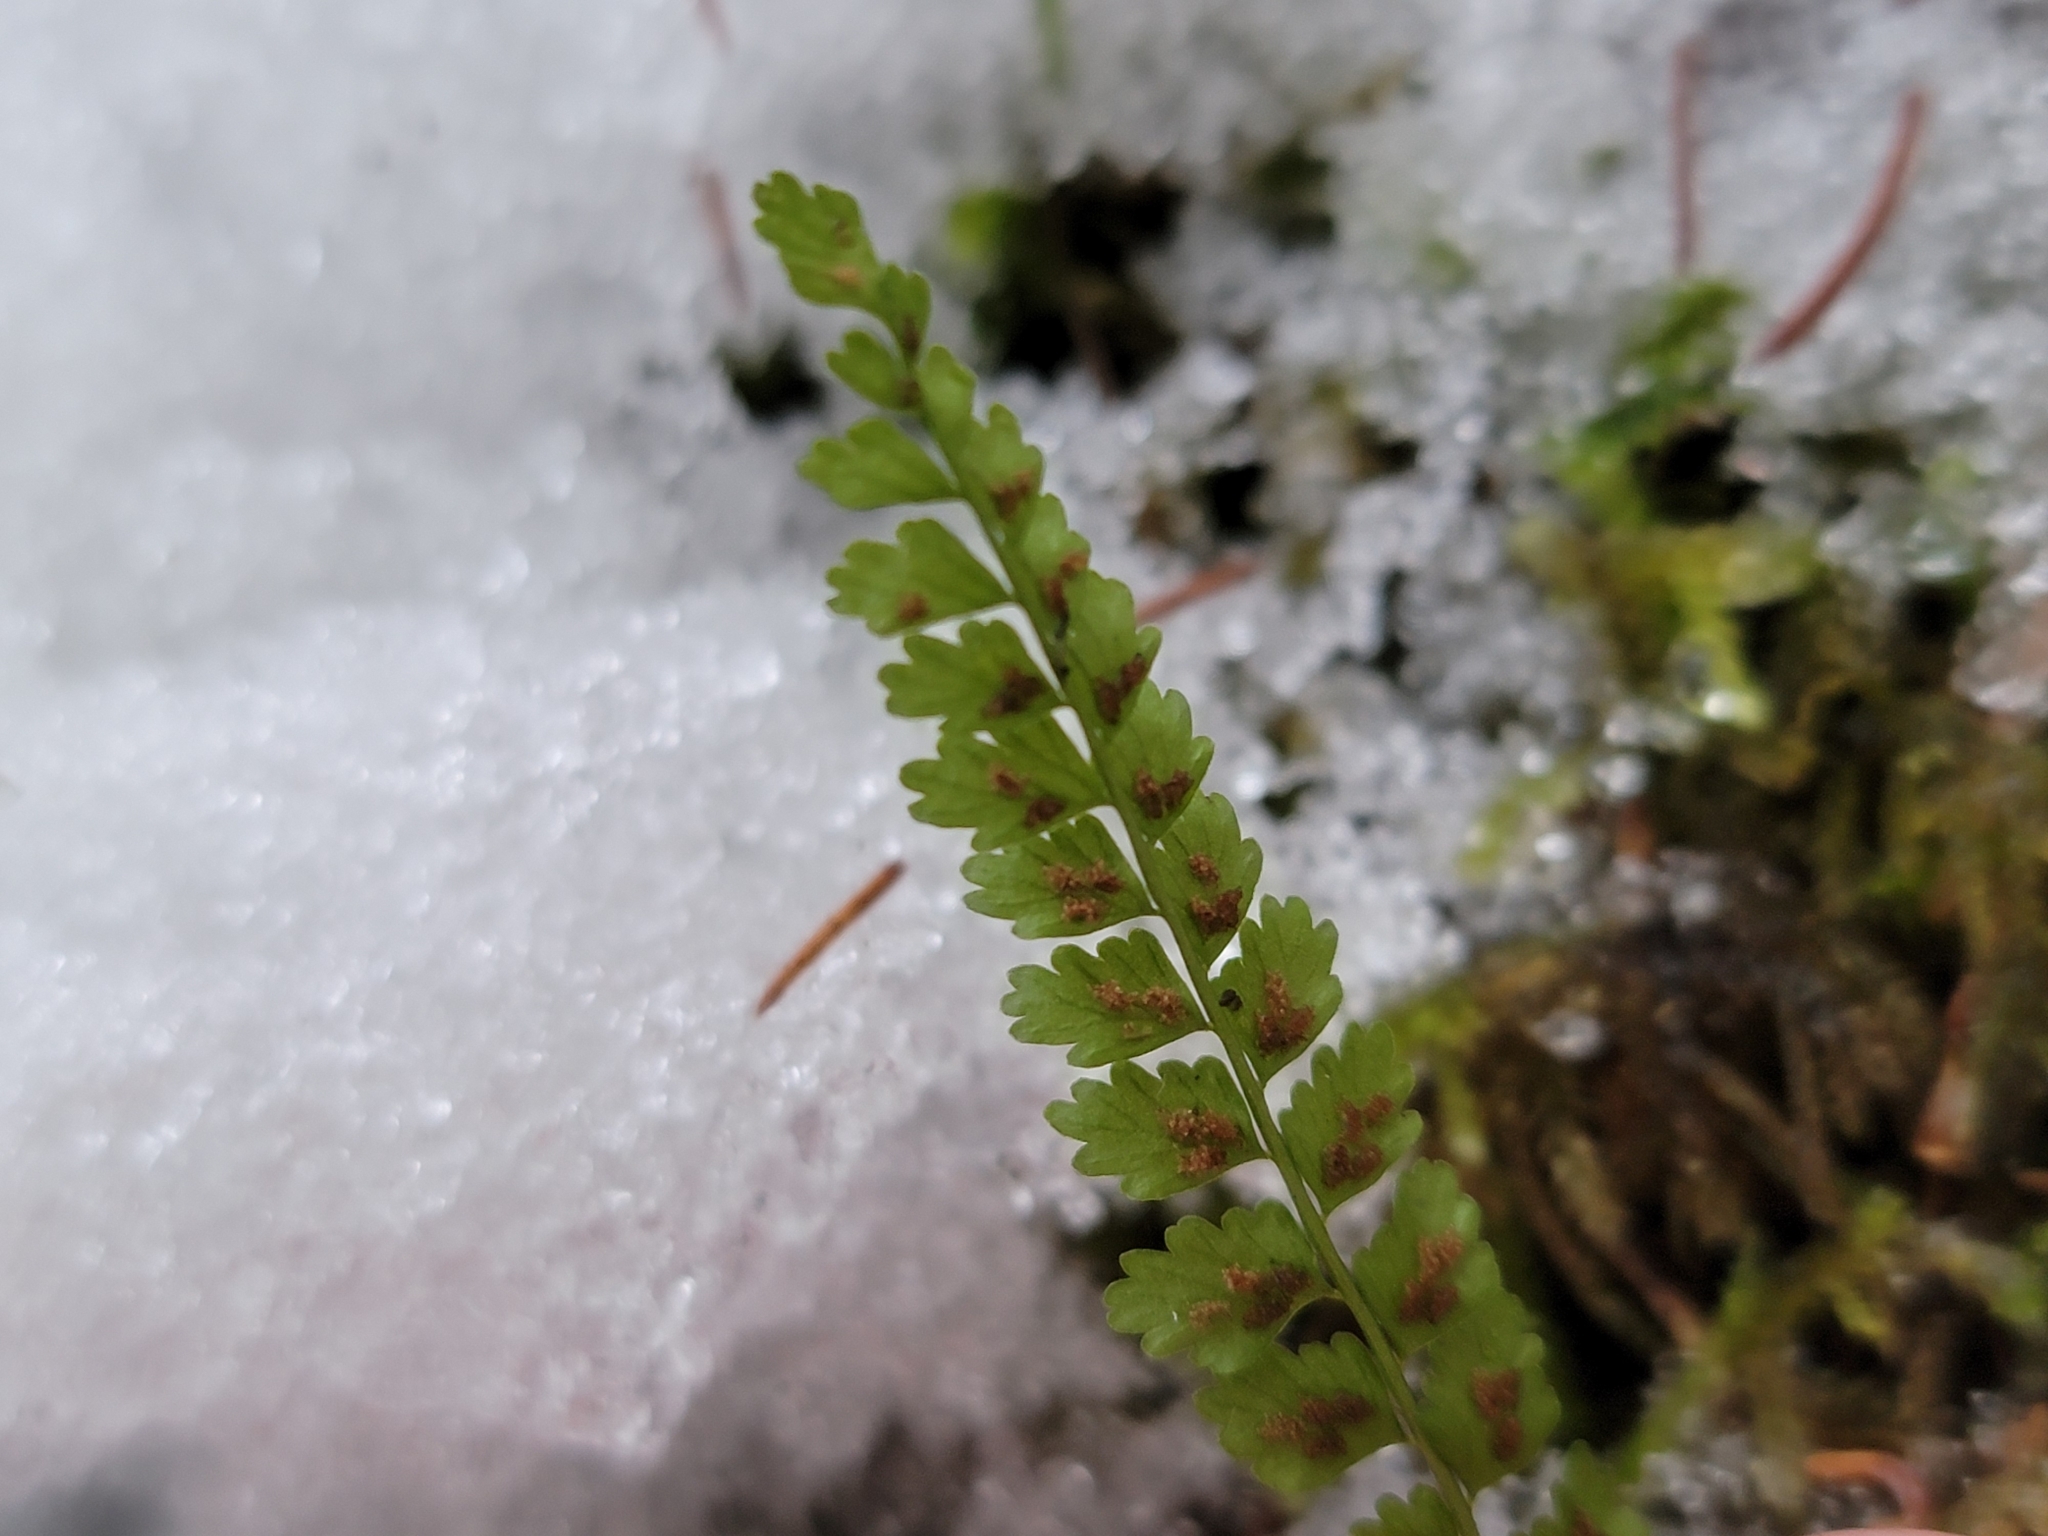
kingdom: Plantae
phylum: Tracheophyta
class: Polypodiopsida
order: Polypodiales
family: Aspleniaceae
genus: Asplenium
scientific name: Asplenium viride
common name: Green spleenwort
